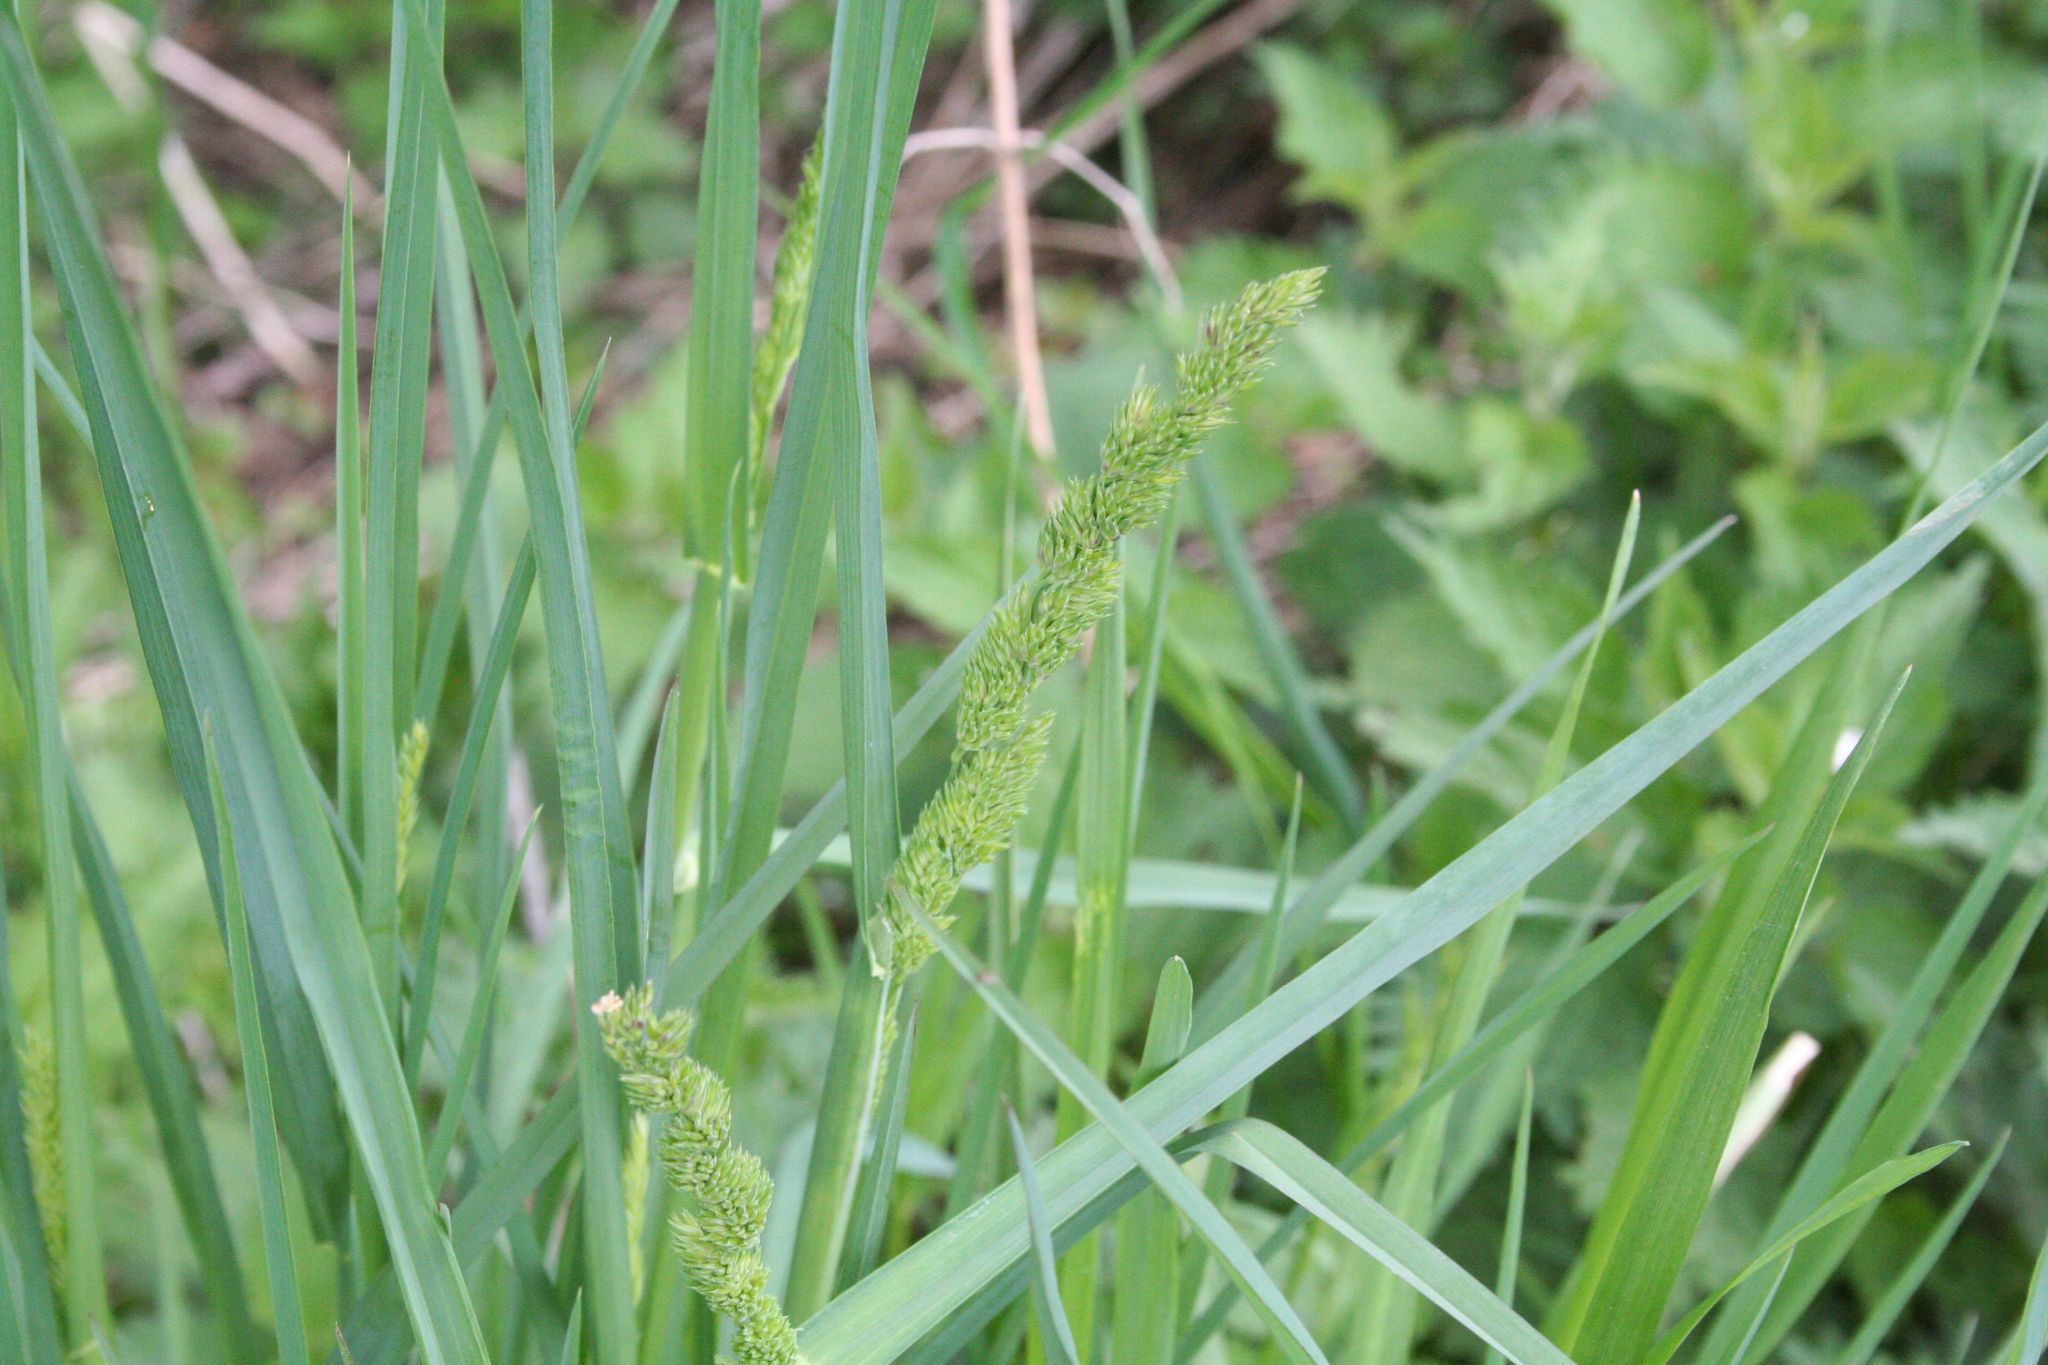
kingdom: Plantae
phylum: Tracheophyta
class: Liliopsida
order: Poales
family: Poaceae
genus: Dactylis
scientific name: Dactylis glomerata
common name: Orchardgrass
